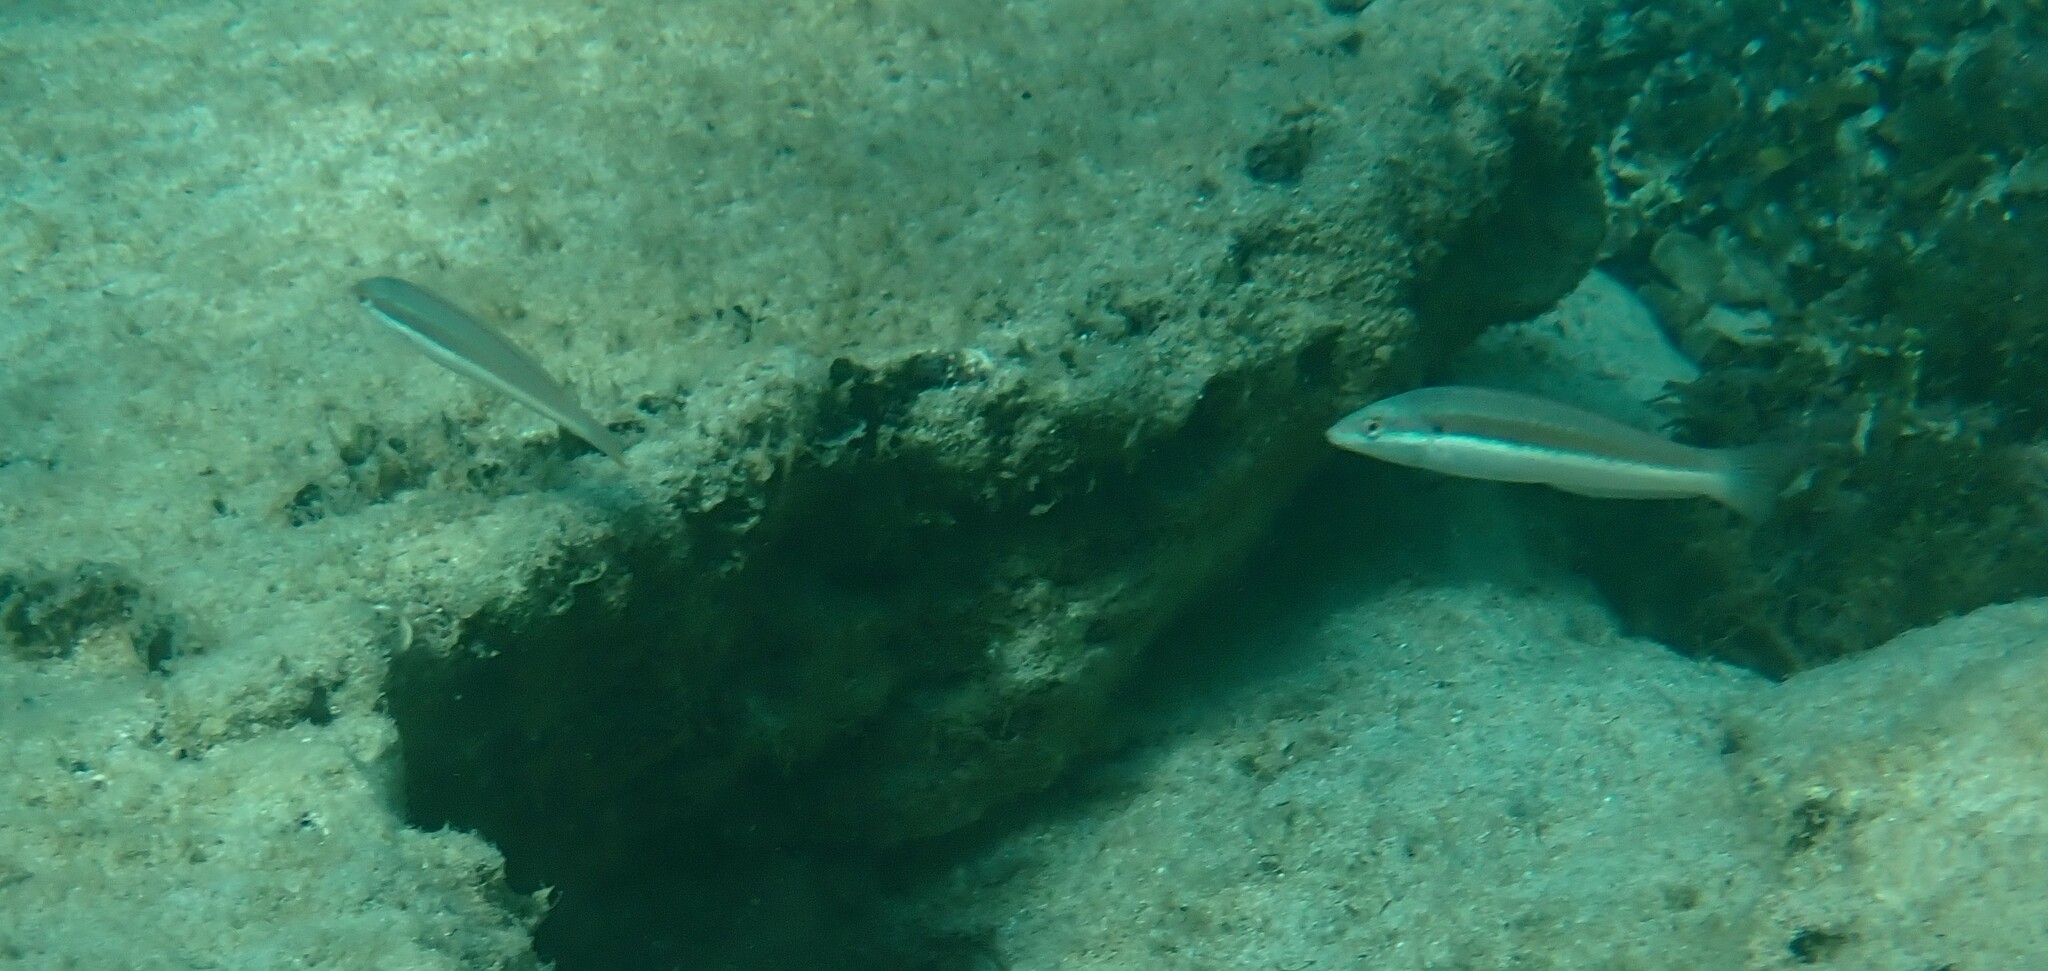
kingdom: Animalia
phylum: Chordata
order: Perciformes
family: Labridae
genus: Coris
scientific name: Coris julis
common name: Rainbow wrasse
